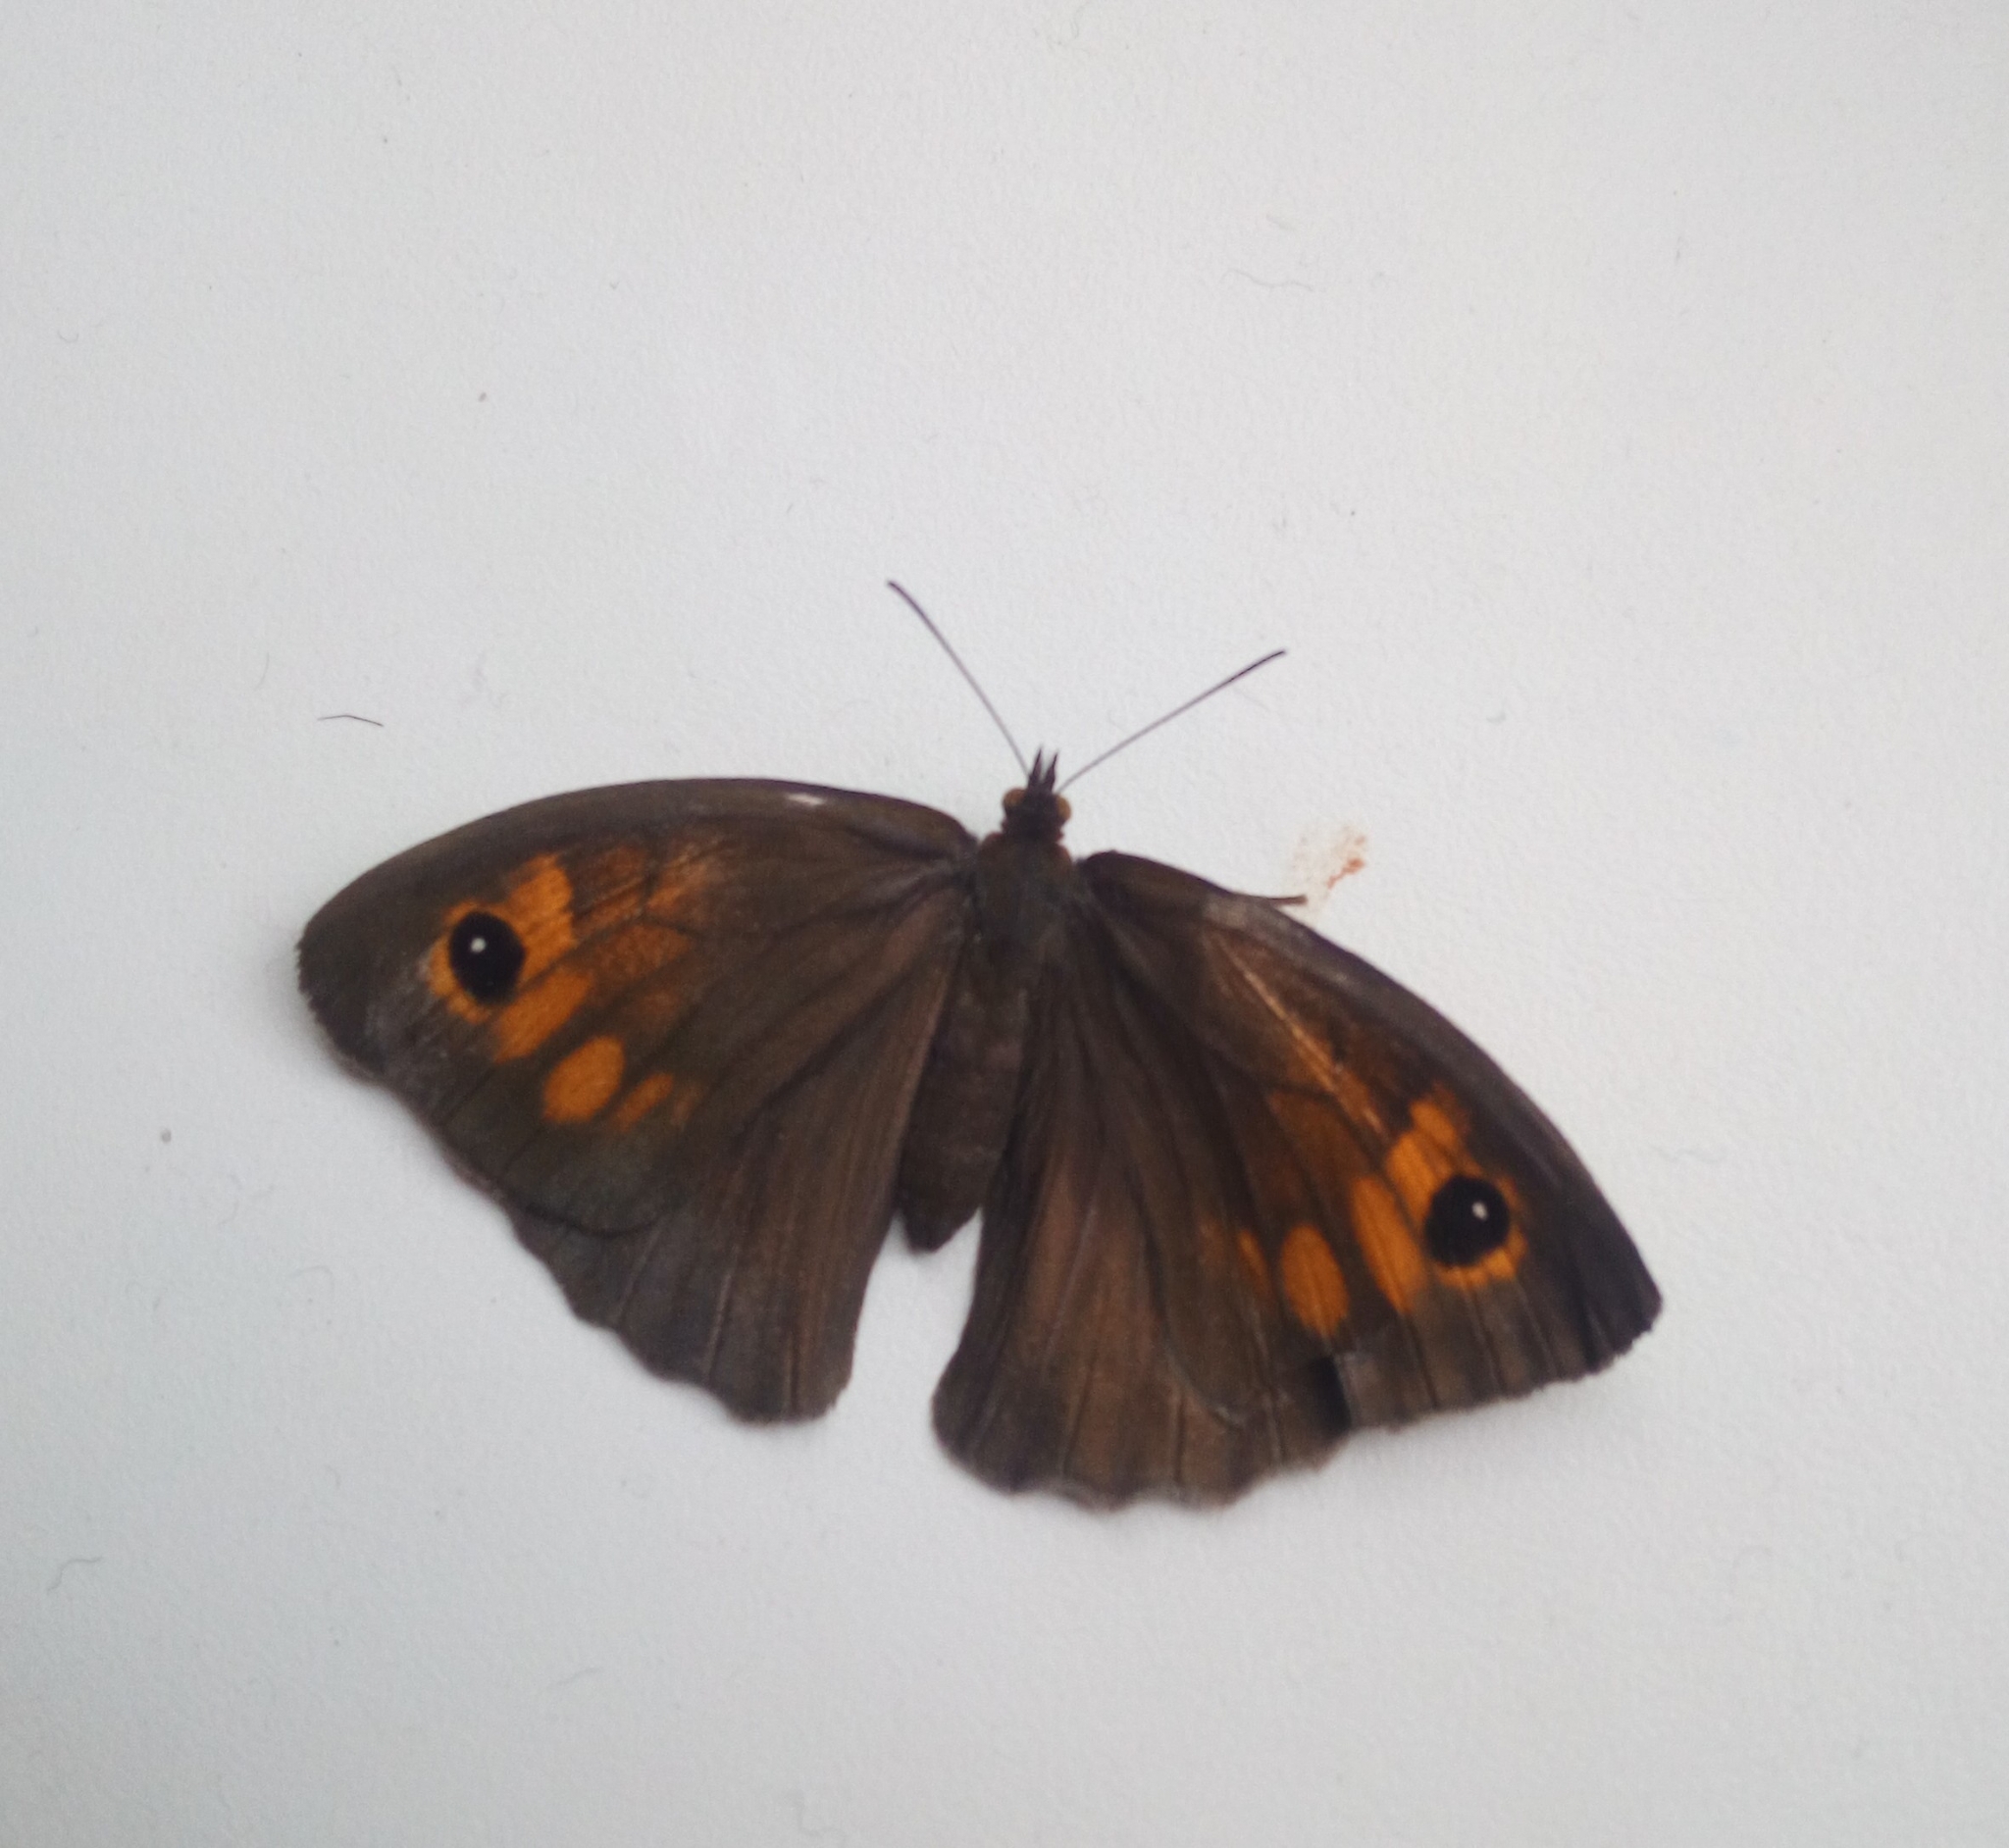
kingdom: Animalia
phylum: Arthropoda
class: Insecta
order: Lepidoptera
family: Nymphalidae
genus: Maniola
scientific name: Maniola jurtina
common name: Meadow brown
